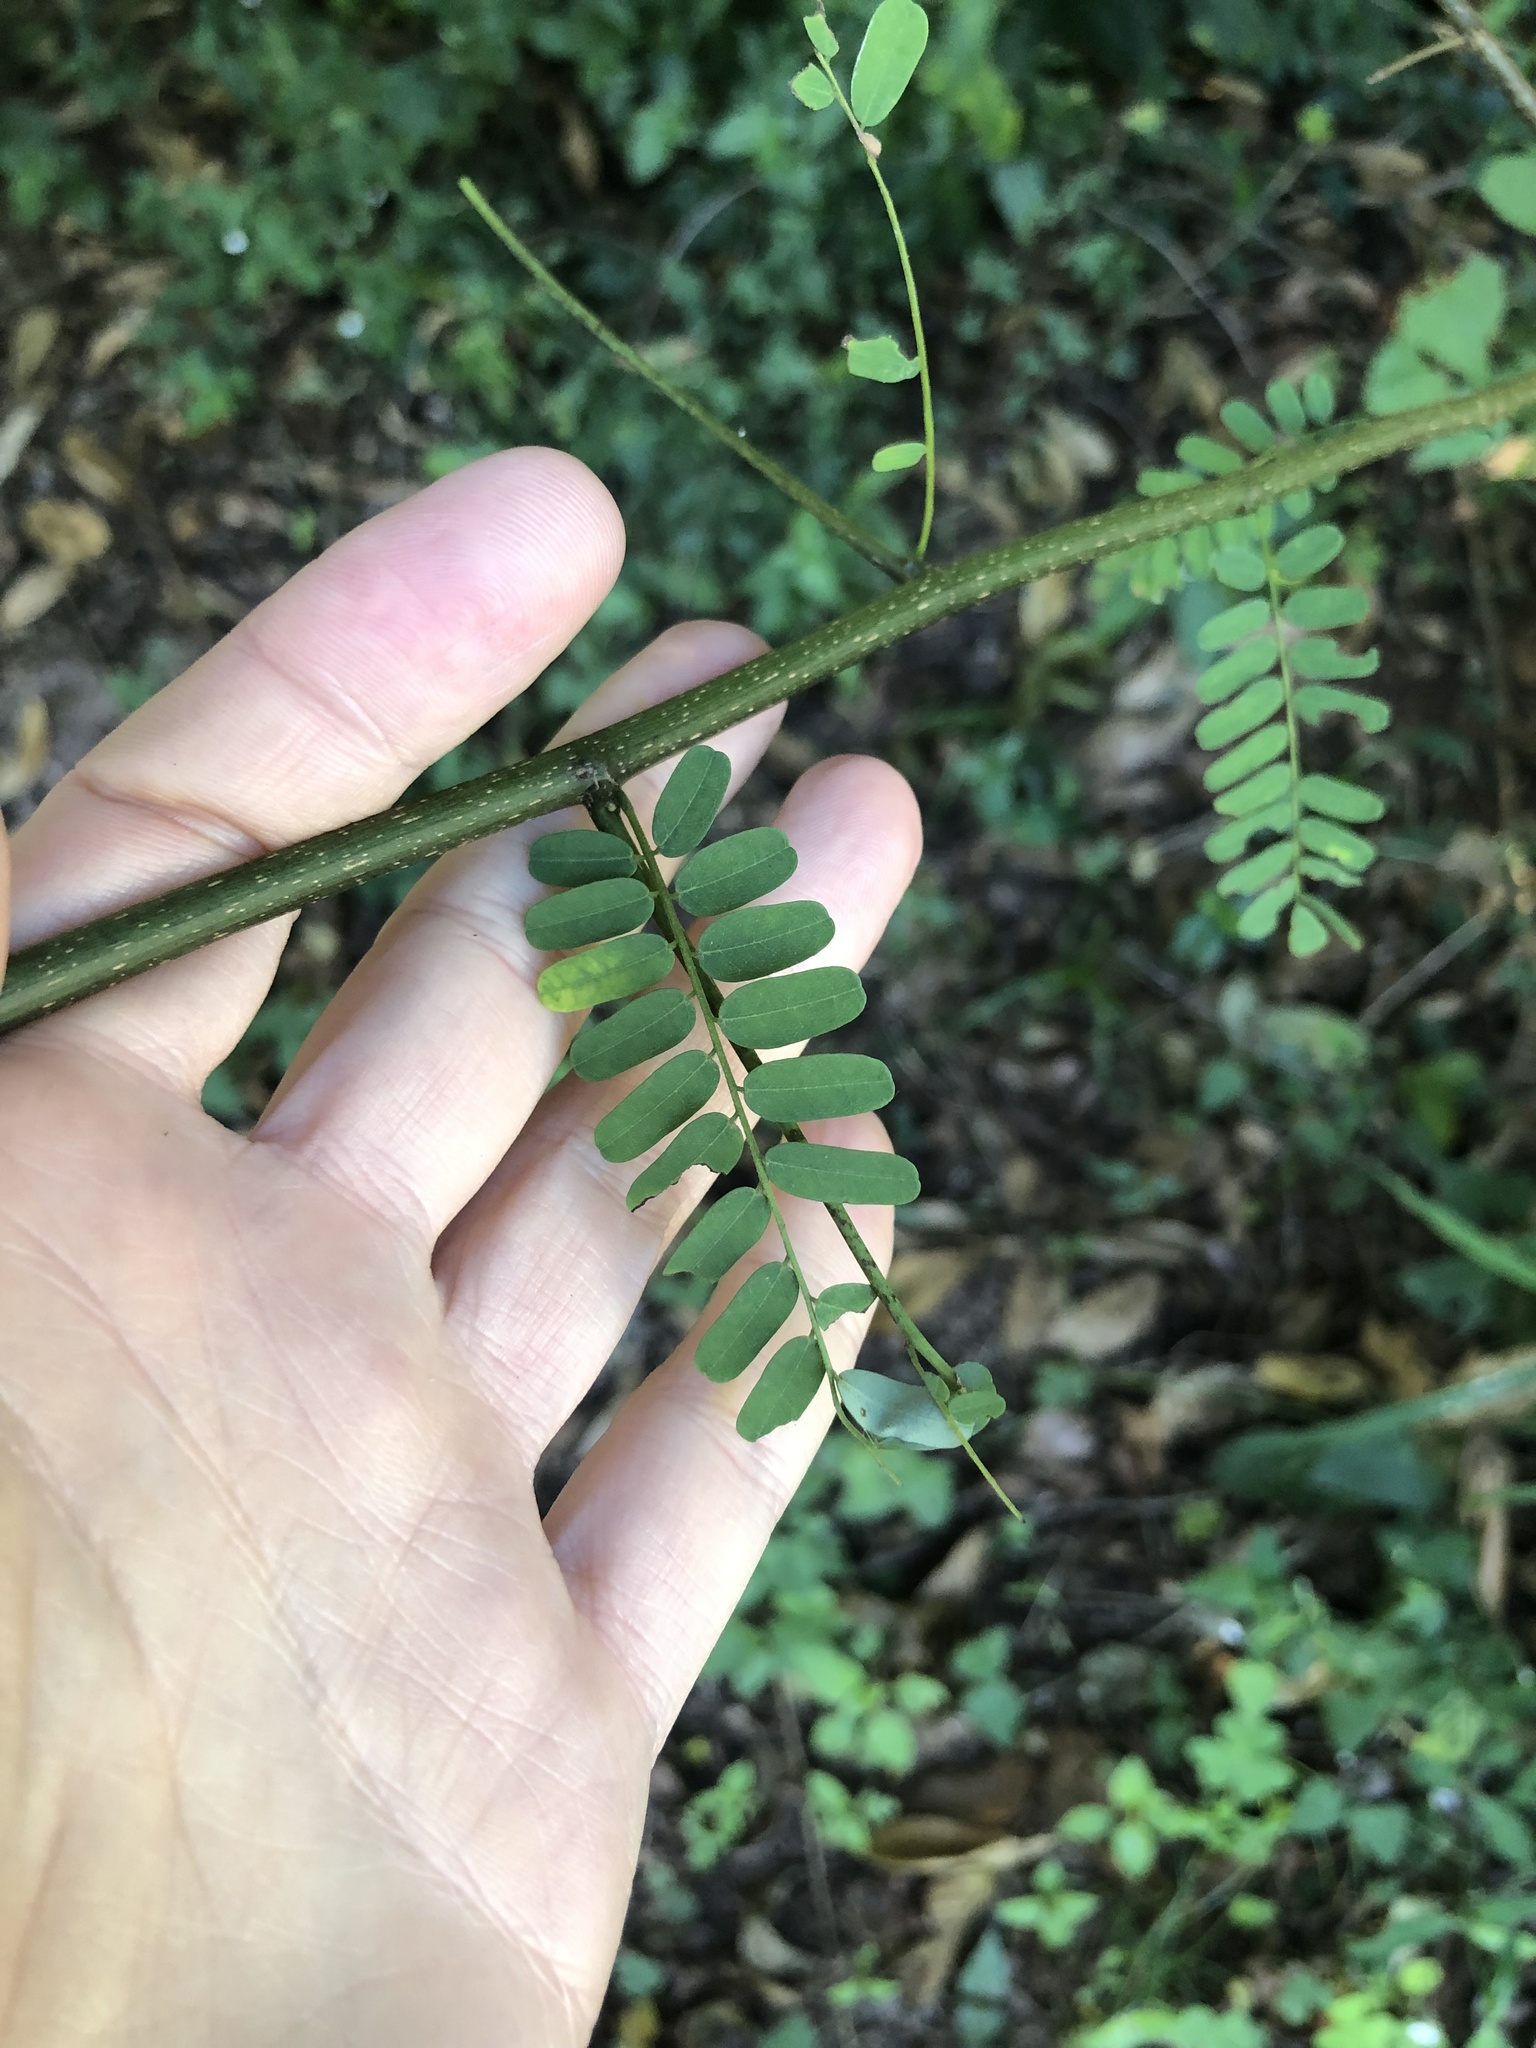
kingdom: Plantae
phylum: Tracheophyta
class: Magnoliopsida
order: Fabales
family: Fabaceae
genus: Dalbergia
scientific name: Dalbergia armata
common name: Hluhluwe climber
